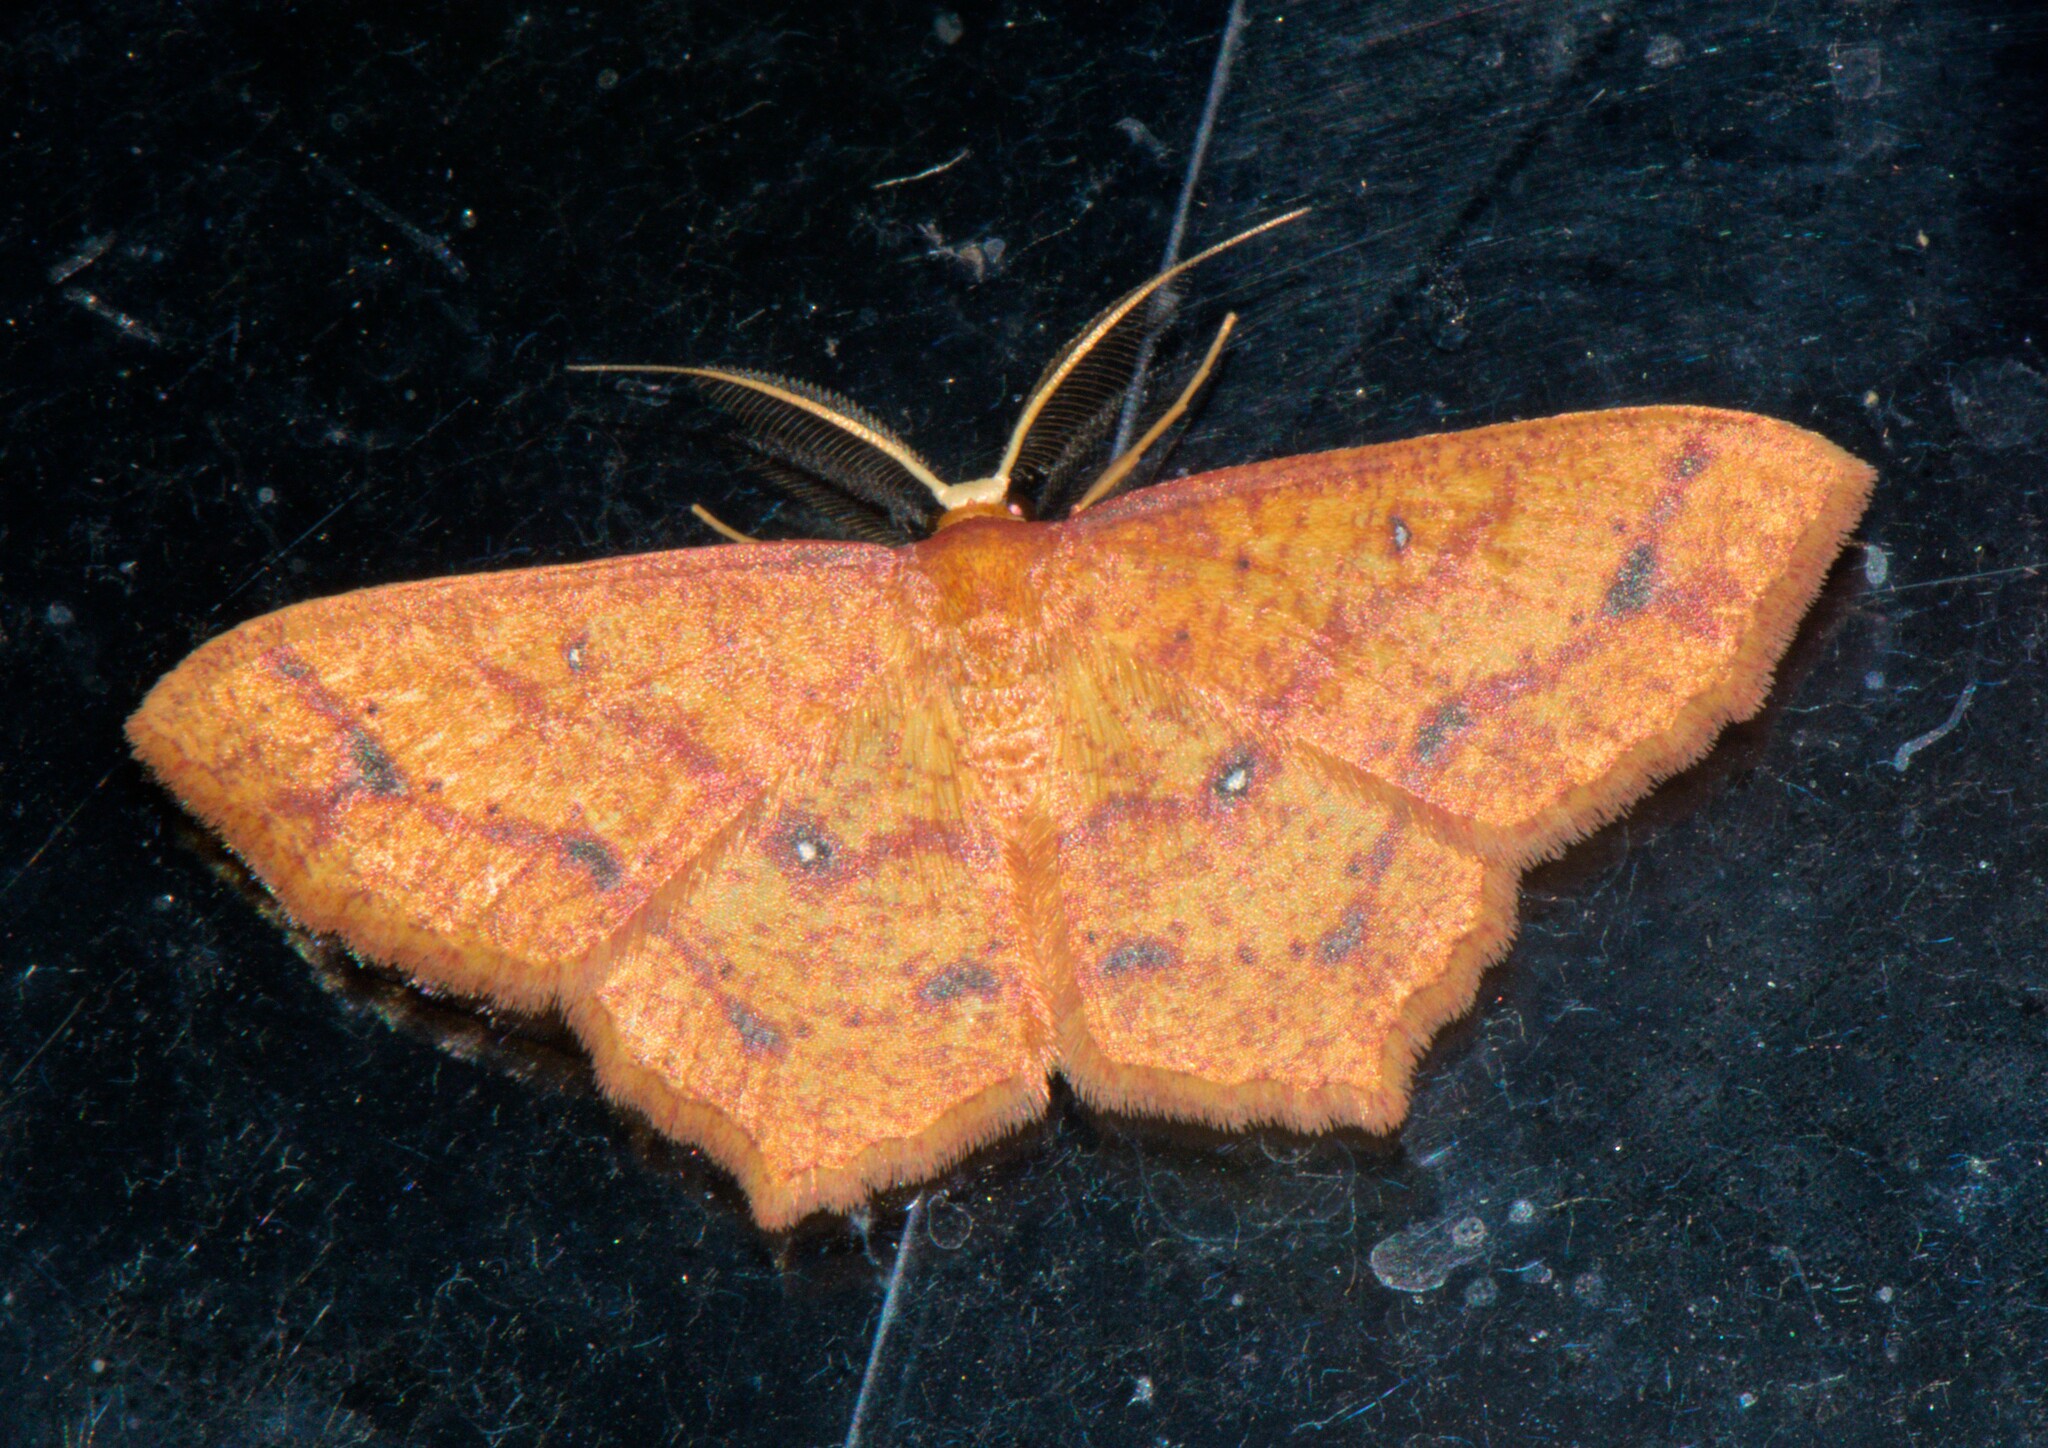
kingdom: Animalia
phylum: Arthropoda
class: Insecta
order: Lepidoptera
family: Geometridae
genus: Synegiodes
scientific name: Synegiodes hyriaria
